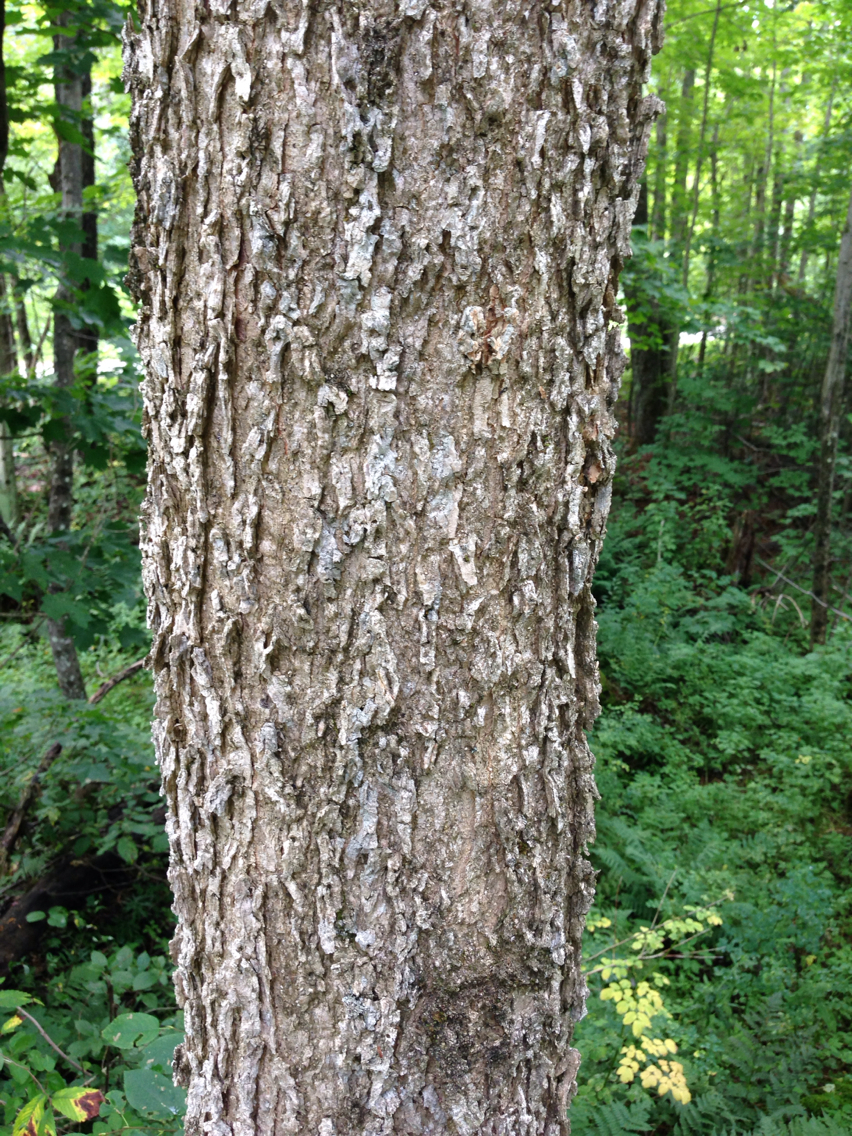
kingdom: Plantae
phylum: Tracheophyta
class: Magnoliopsida
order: Lamiales
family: Oleaceae
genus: Fraxinus
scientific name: Fraxinus nigra
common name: Black ash
